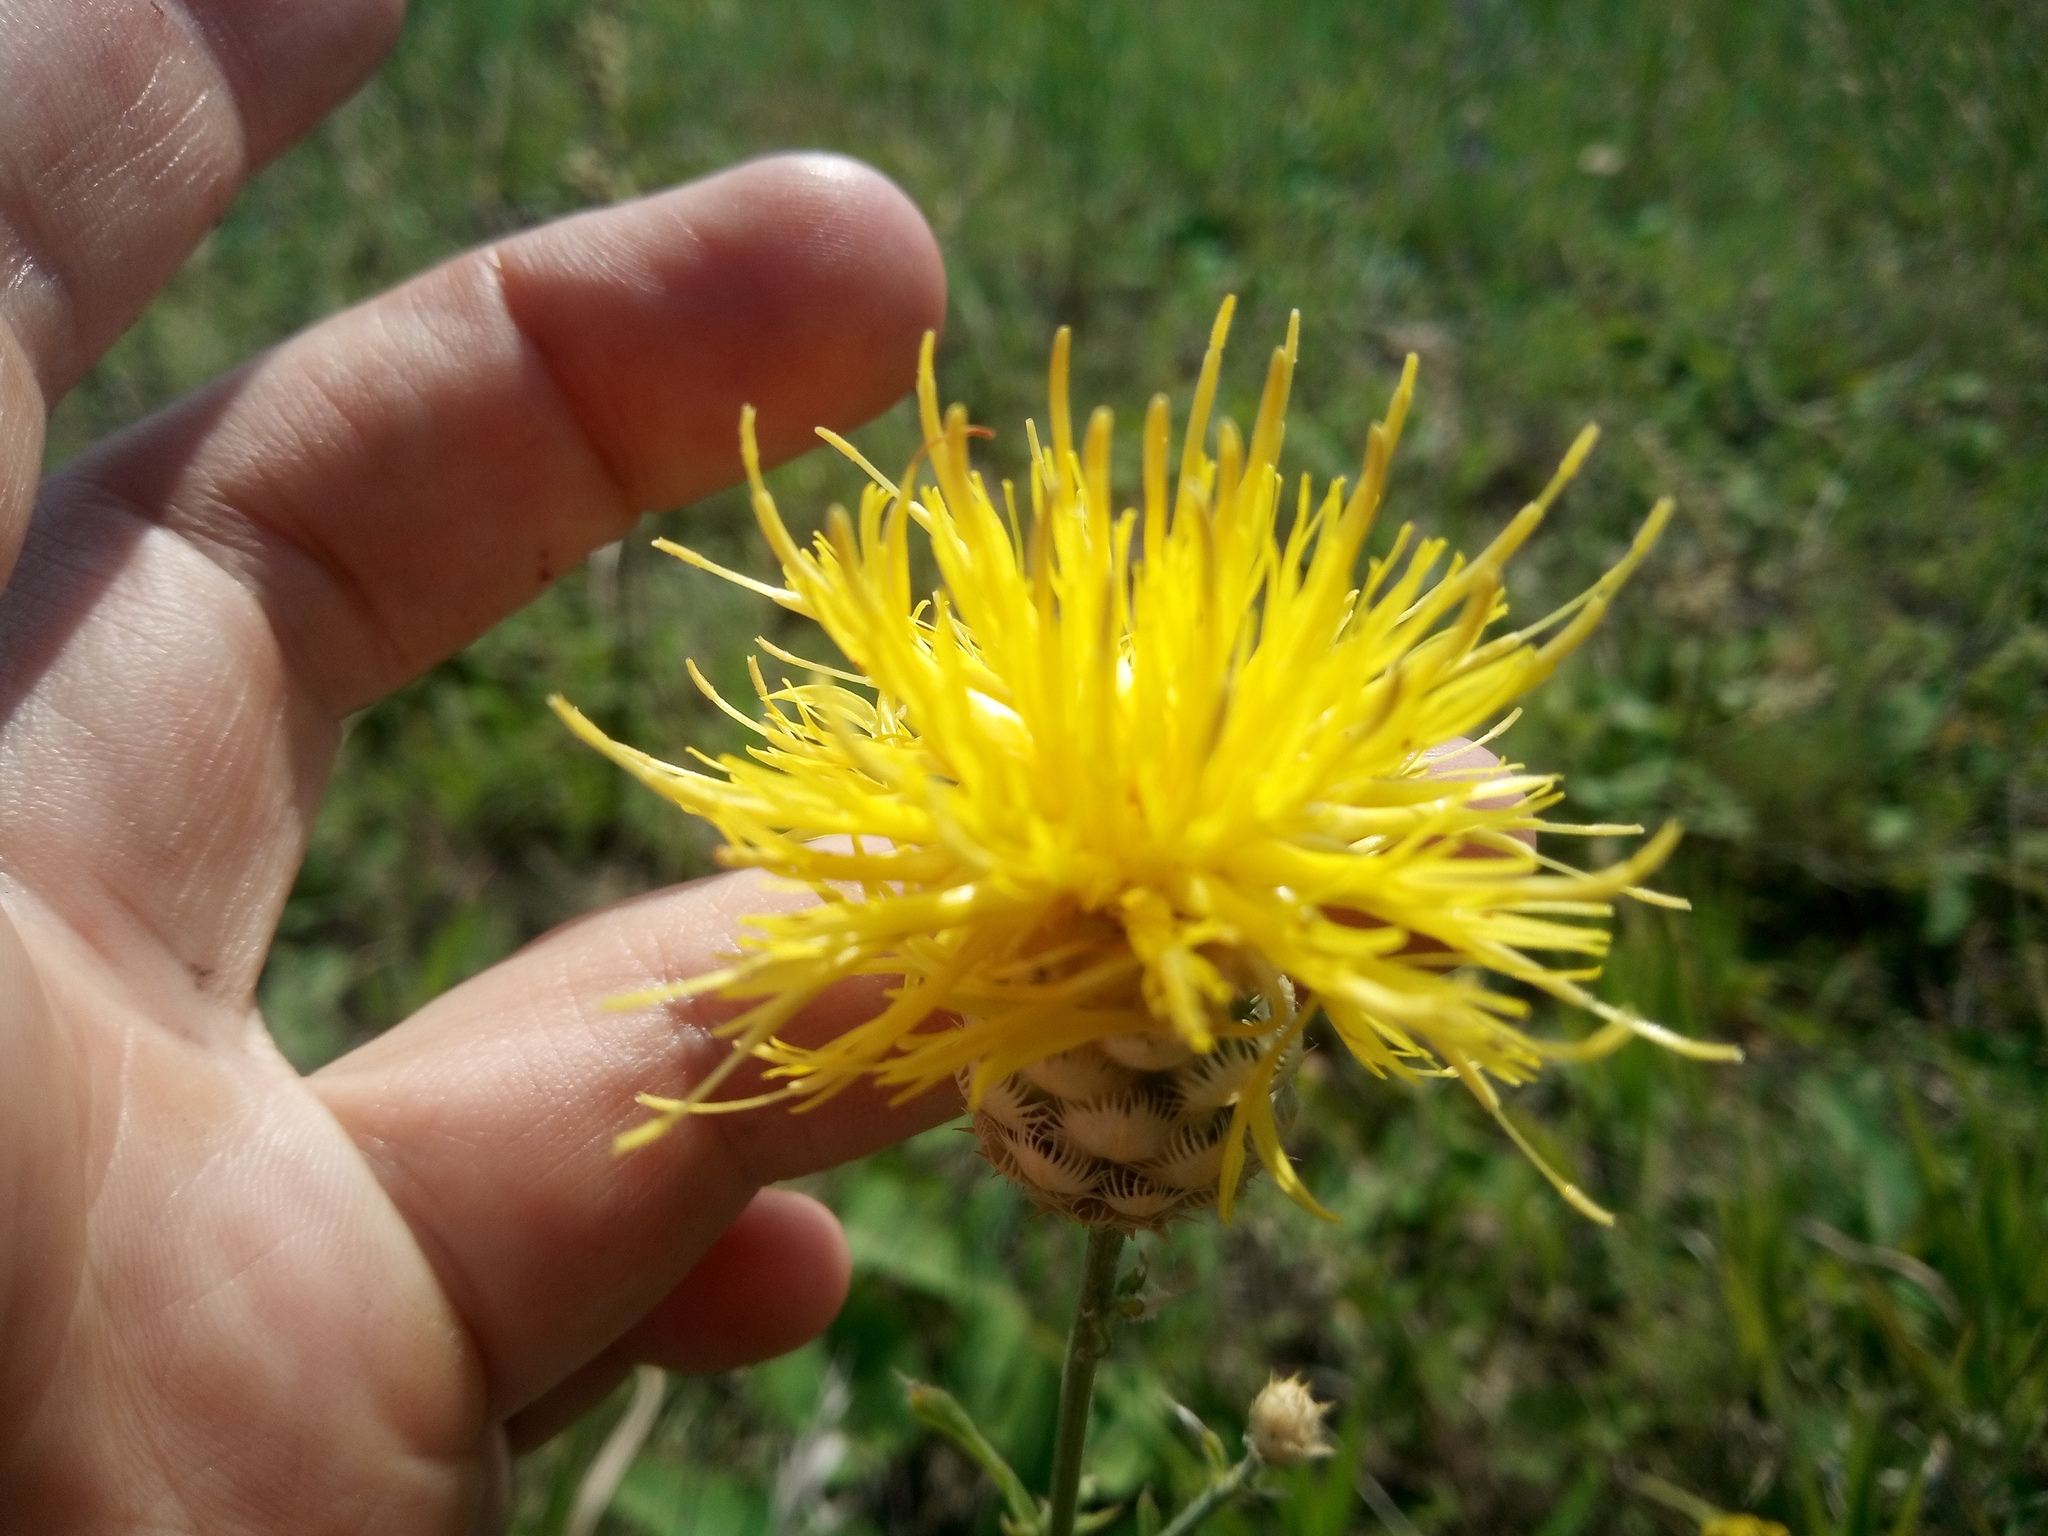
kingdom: Plantae
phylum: Tracheophyta
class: Magnoliopsida
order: Asterales
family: Asteraceae
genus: Centaurea
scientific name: Centaurea orientalis
